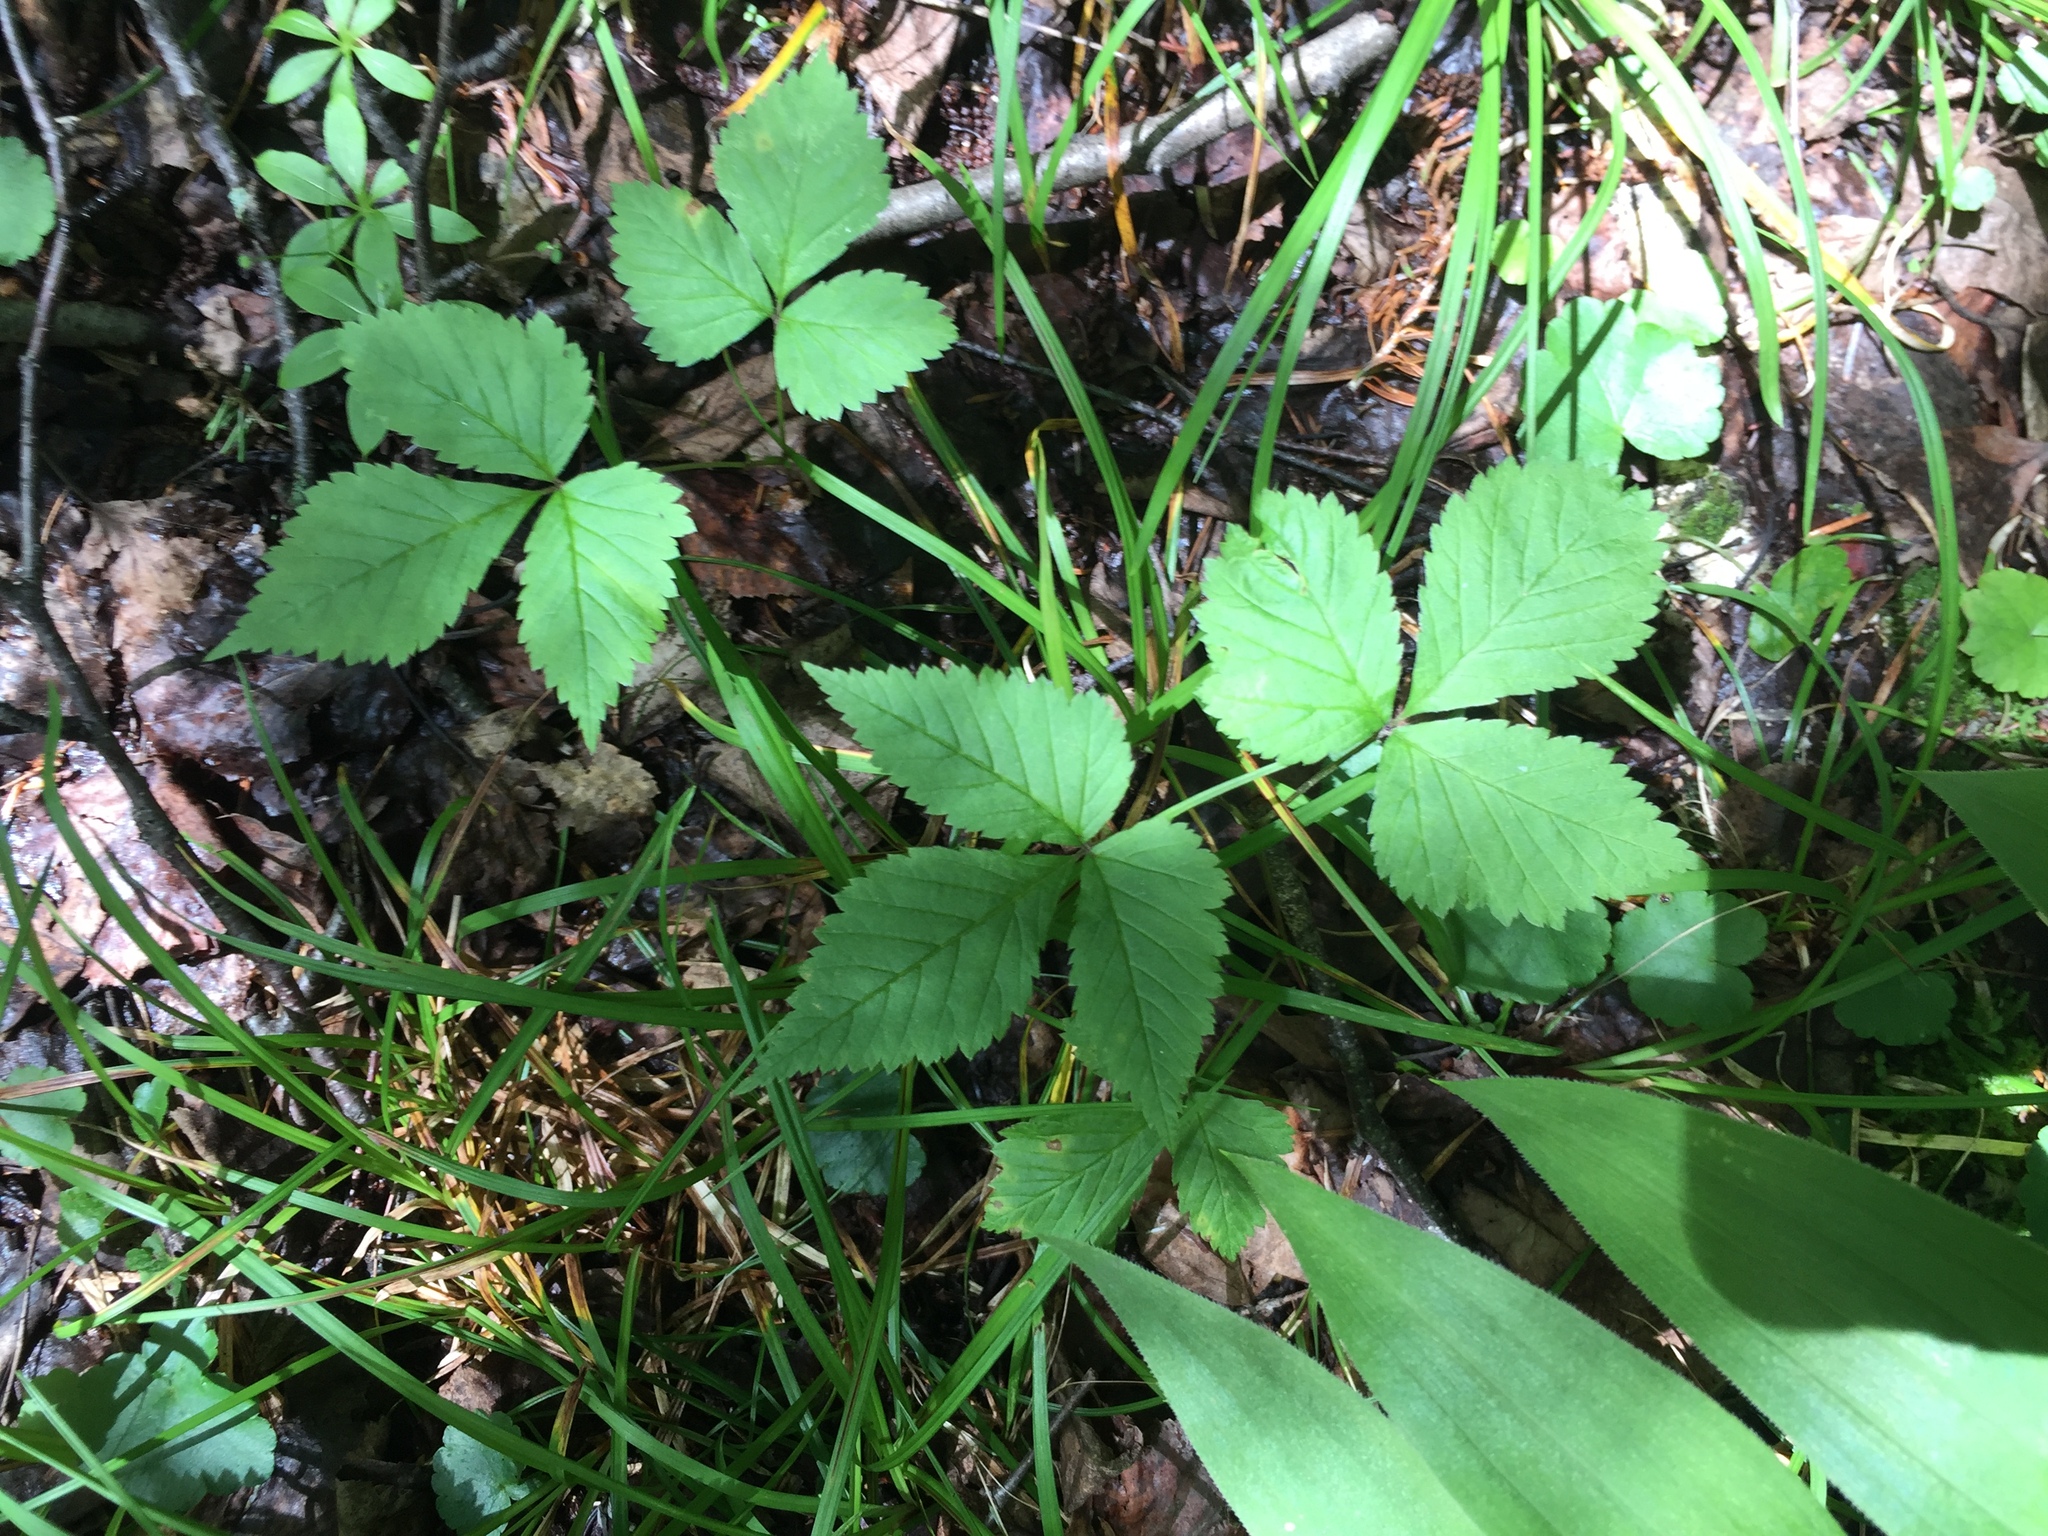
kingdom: Plantae
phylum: Tracheophyta
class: Magnoliopsida
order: Rosales
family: Rosaceae
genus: Rubus
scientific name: Rubus pubescens
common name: Dwarf raspberry
